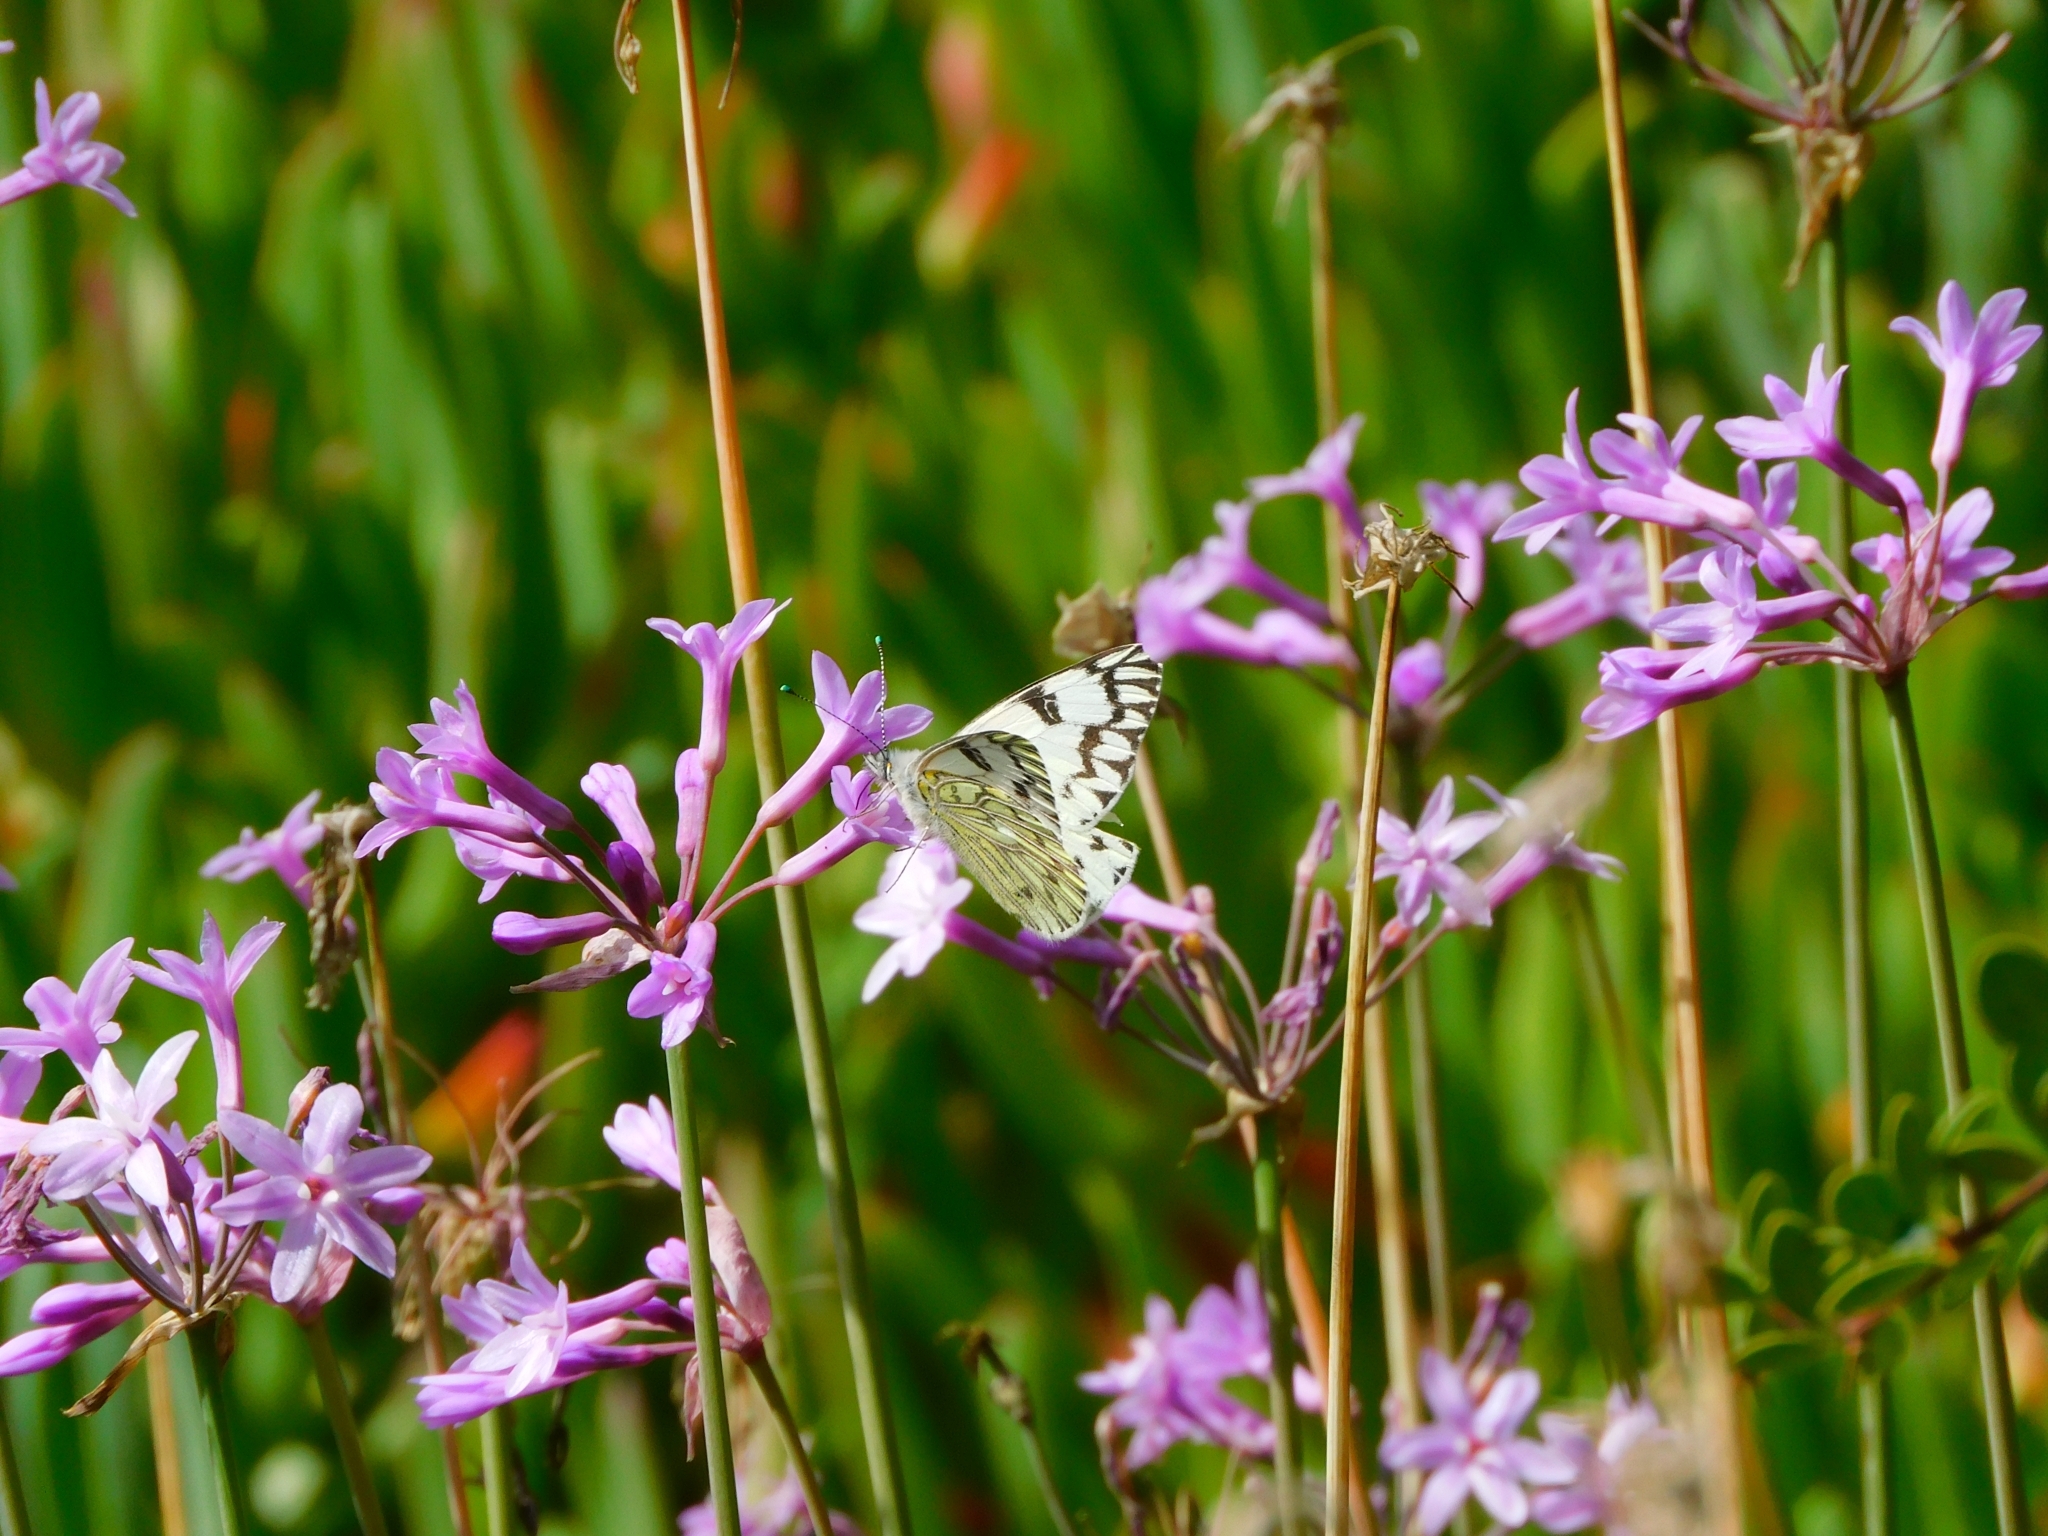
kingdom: Animalia
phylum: Arthropoda
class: Insecta
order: Lepidoptera
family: Pieridae
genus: Tatochila
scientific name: Tatochila autodice
